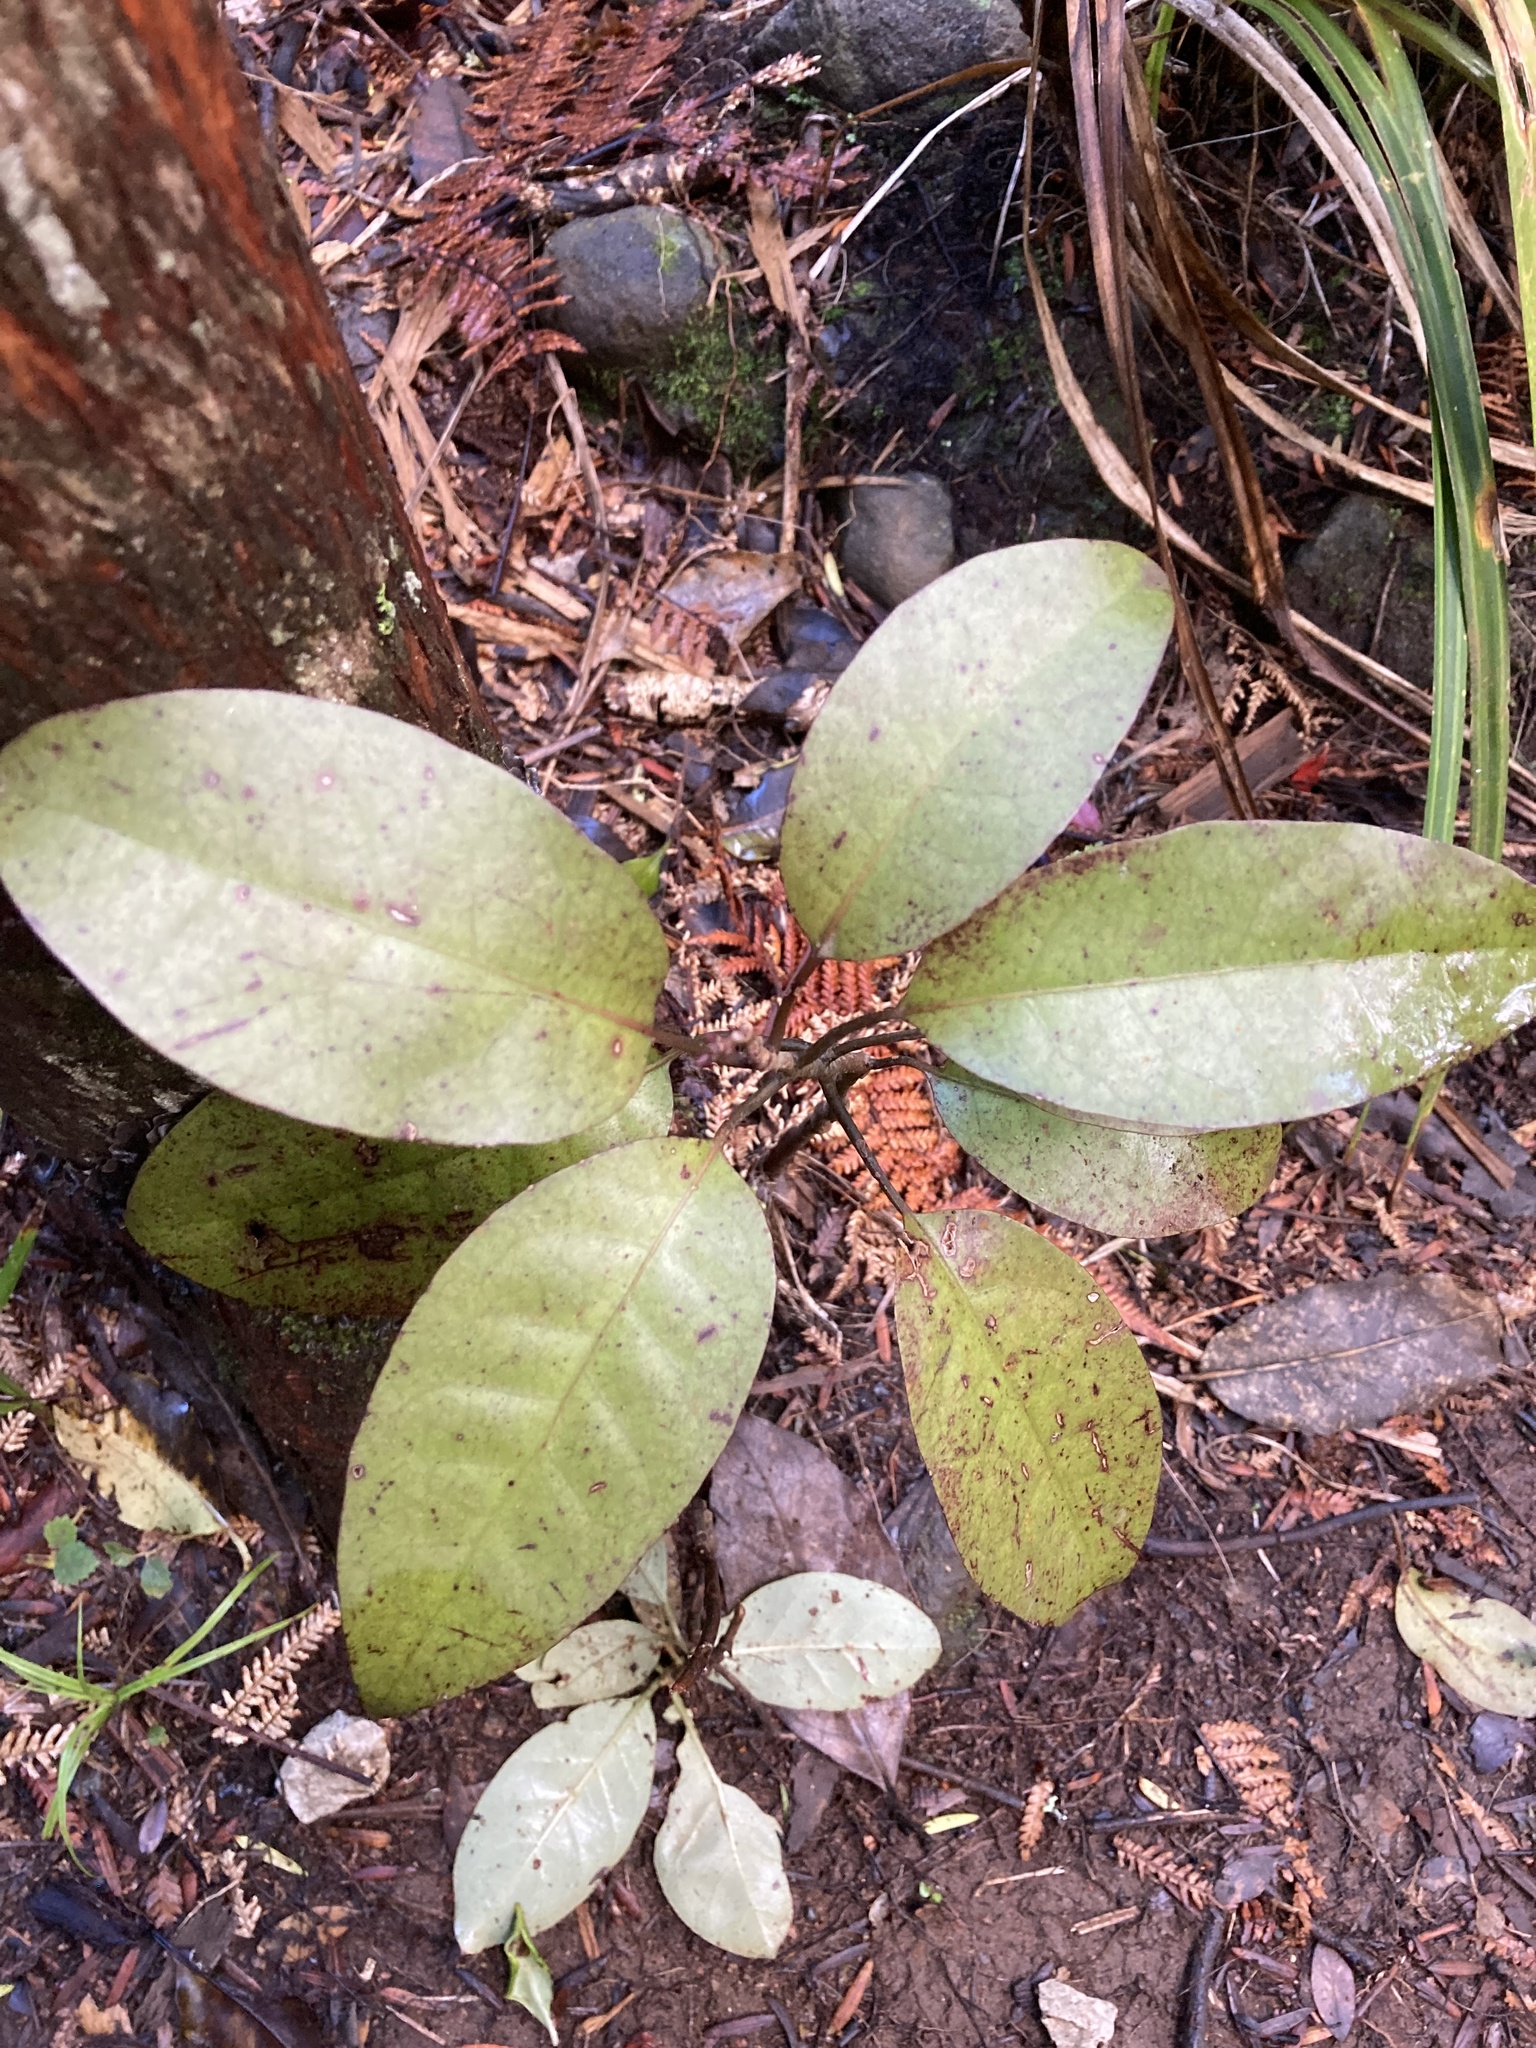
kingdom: Plantae
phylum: Tracheophyta
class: Magnoliopsida
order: Laurales
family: Lauraceae
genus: Litsea
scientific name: Litsea calicaris
